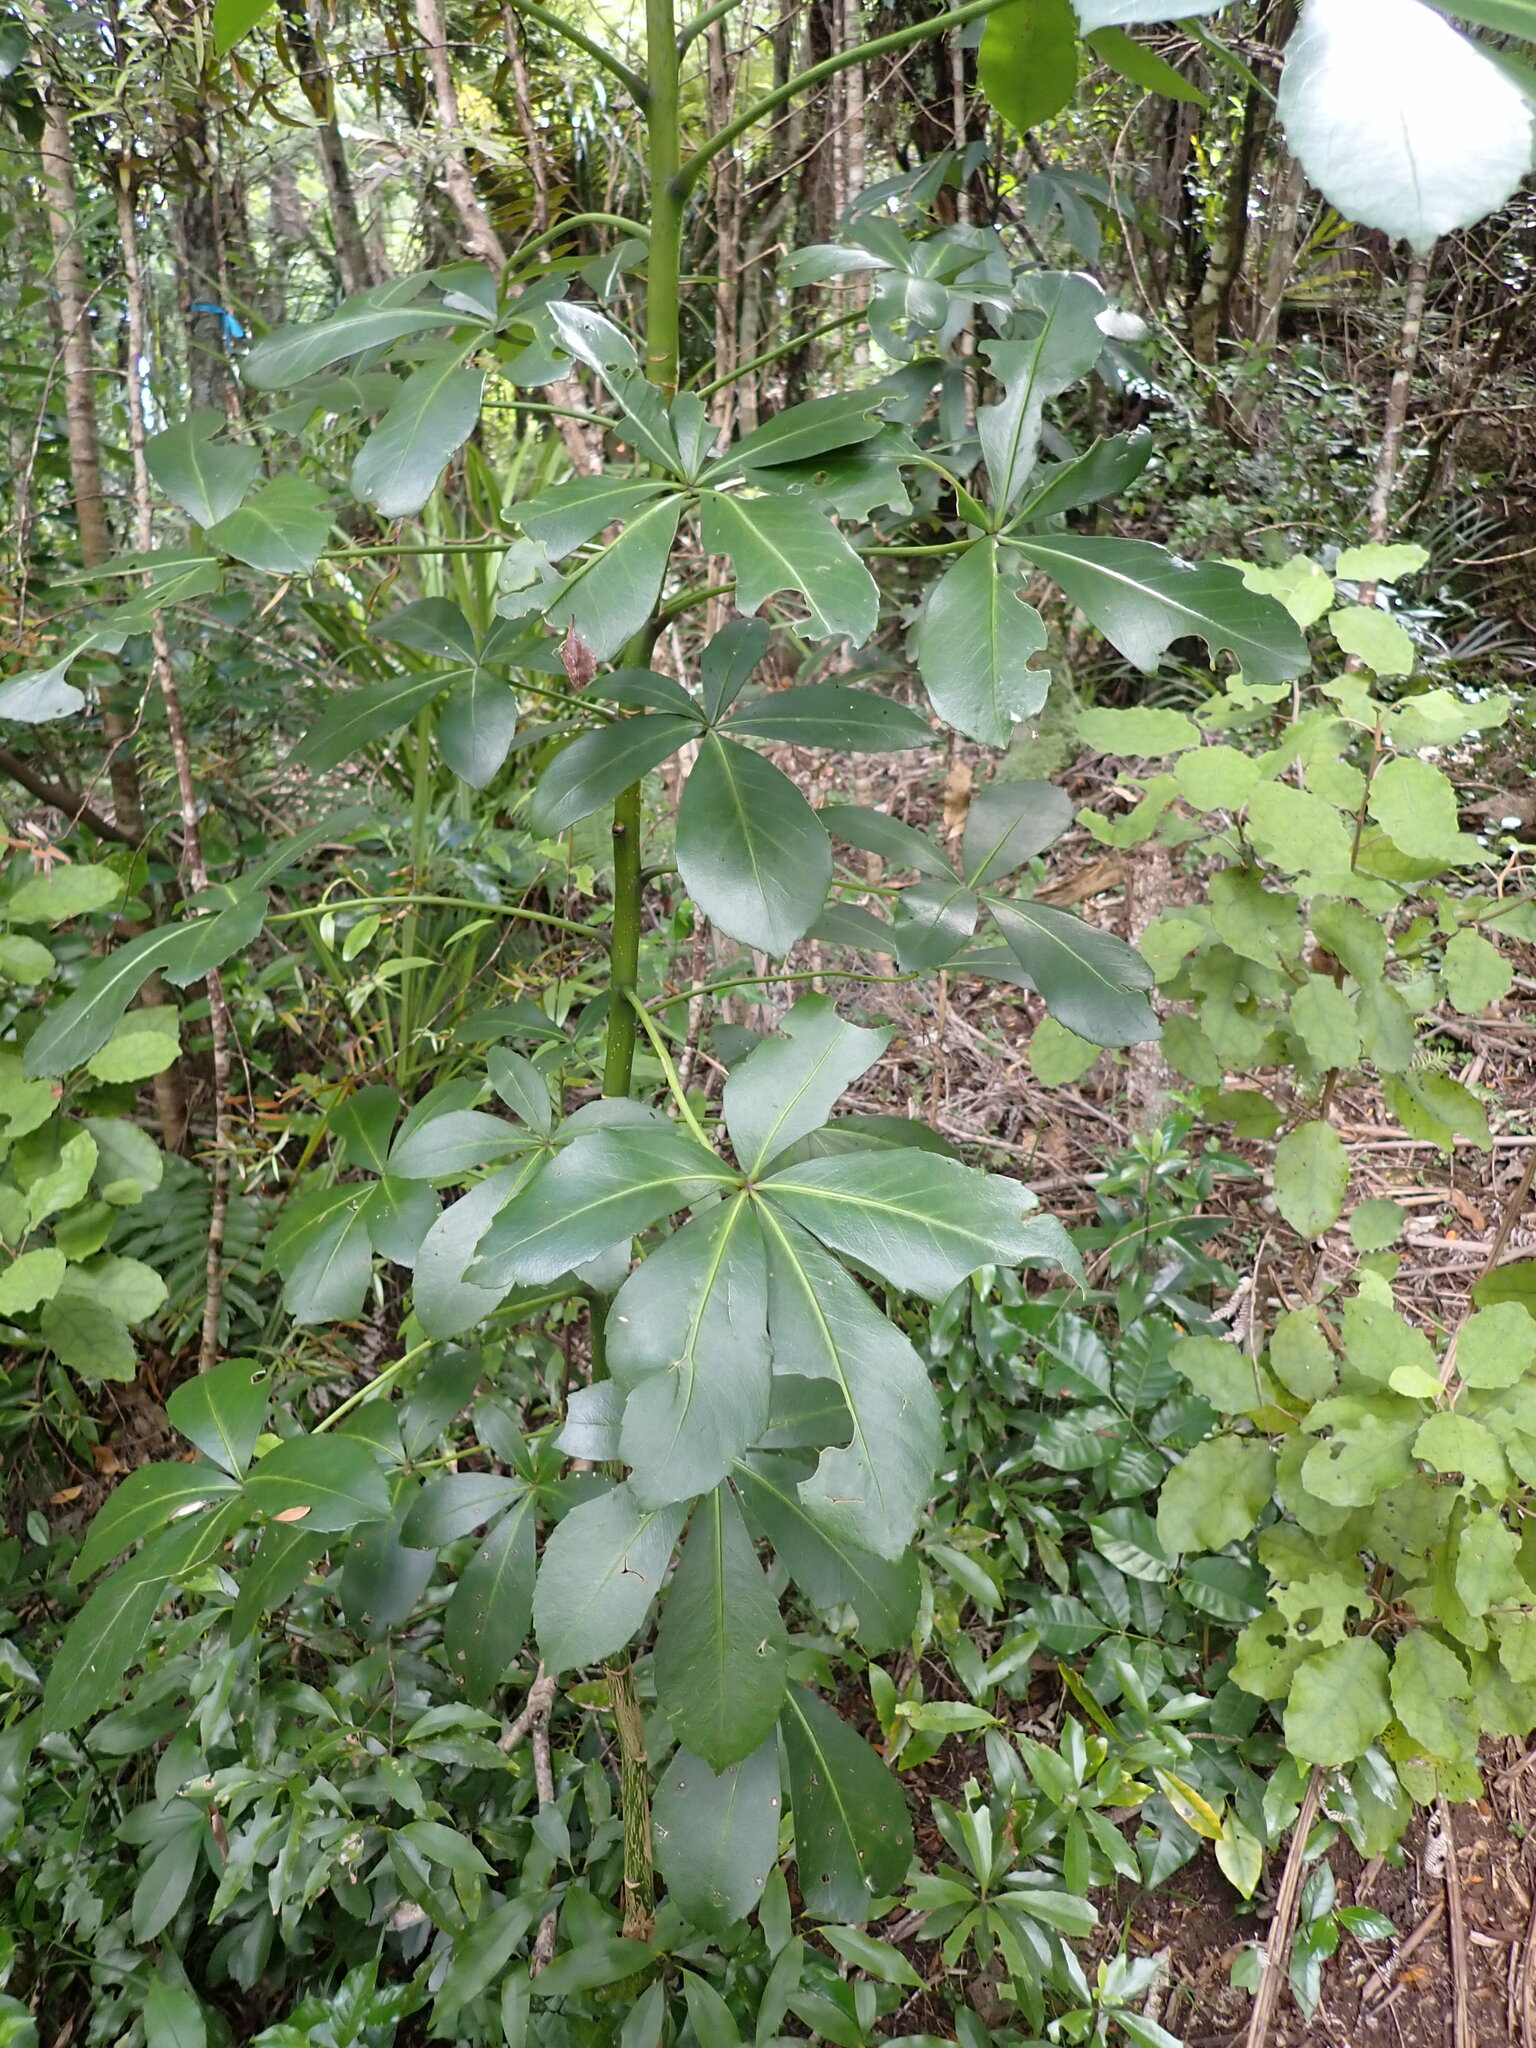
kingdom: Plantae
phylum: Tracheophyta
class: Magnoliopsida
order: Apiales
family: Araliaceae
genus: Pseudopanax
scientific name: Pseudopanax lessonii
